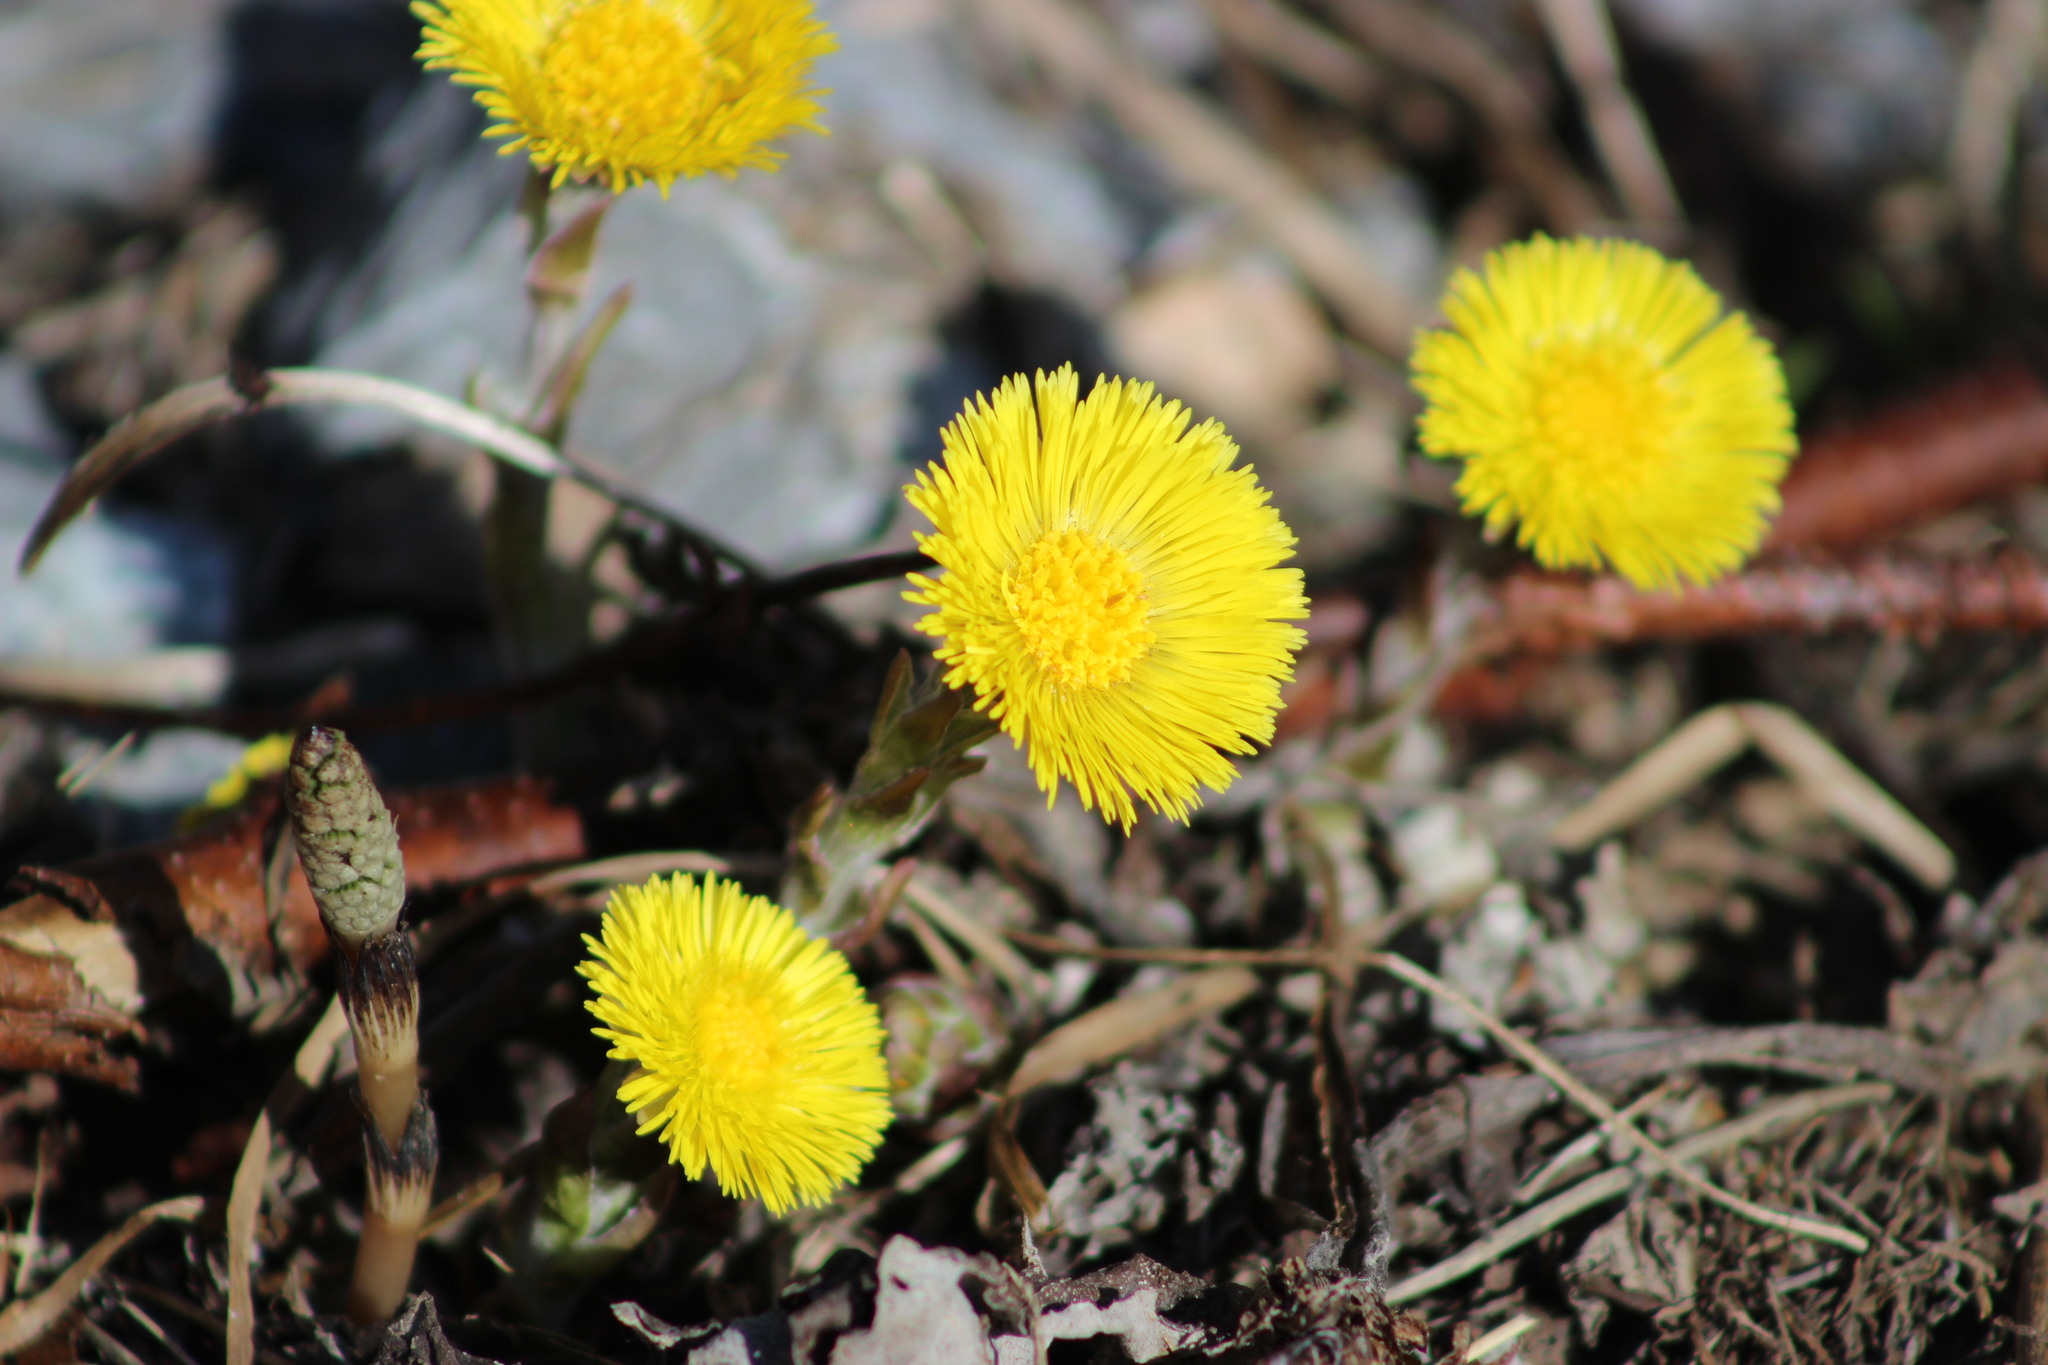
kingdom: Plantae
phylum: Tracheophyta
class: Magnoliopsida
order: Asterales
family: Asteraceae
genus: Tussilago
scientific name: Tussilago farfara
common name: Coltsfoot
